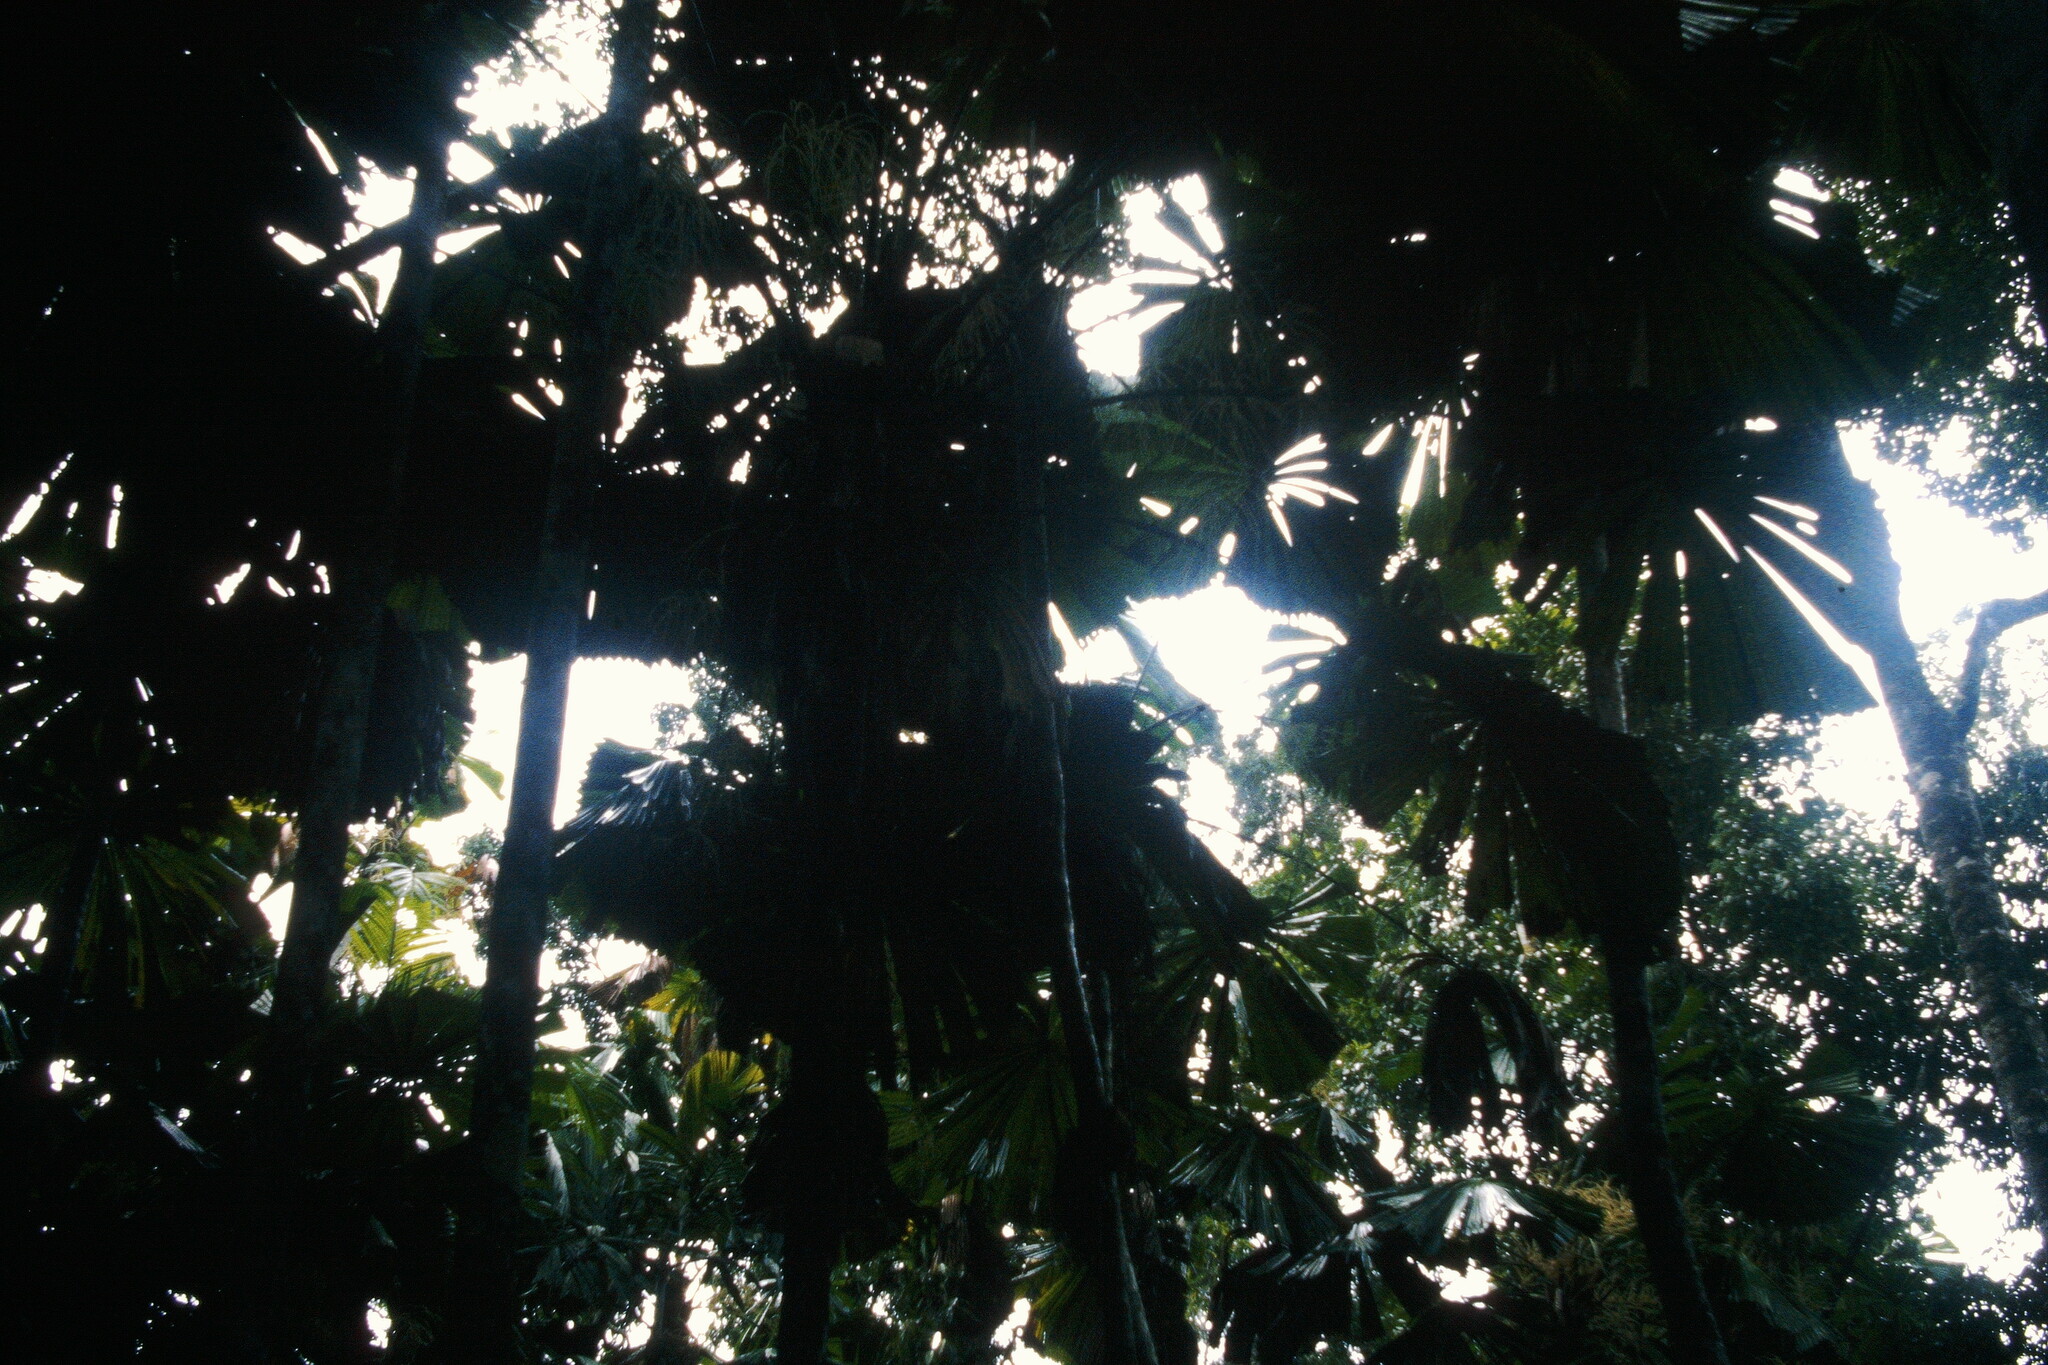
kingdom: Plantae
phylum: Tracheophyta
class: Liliopsida
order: Arecales
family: Arecaceae
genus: Licuala
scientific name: Licuala ramsayi
